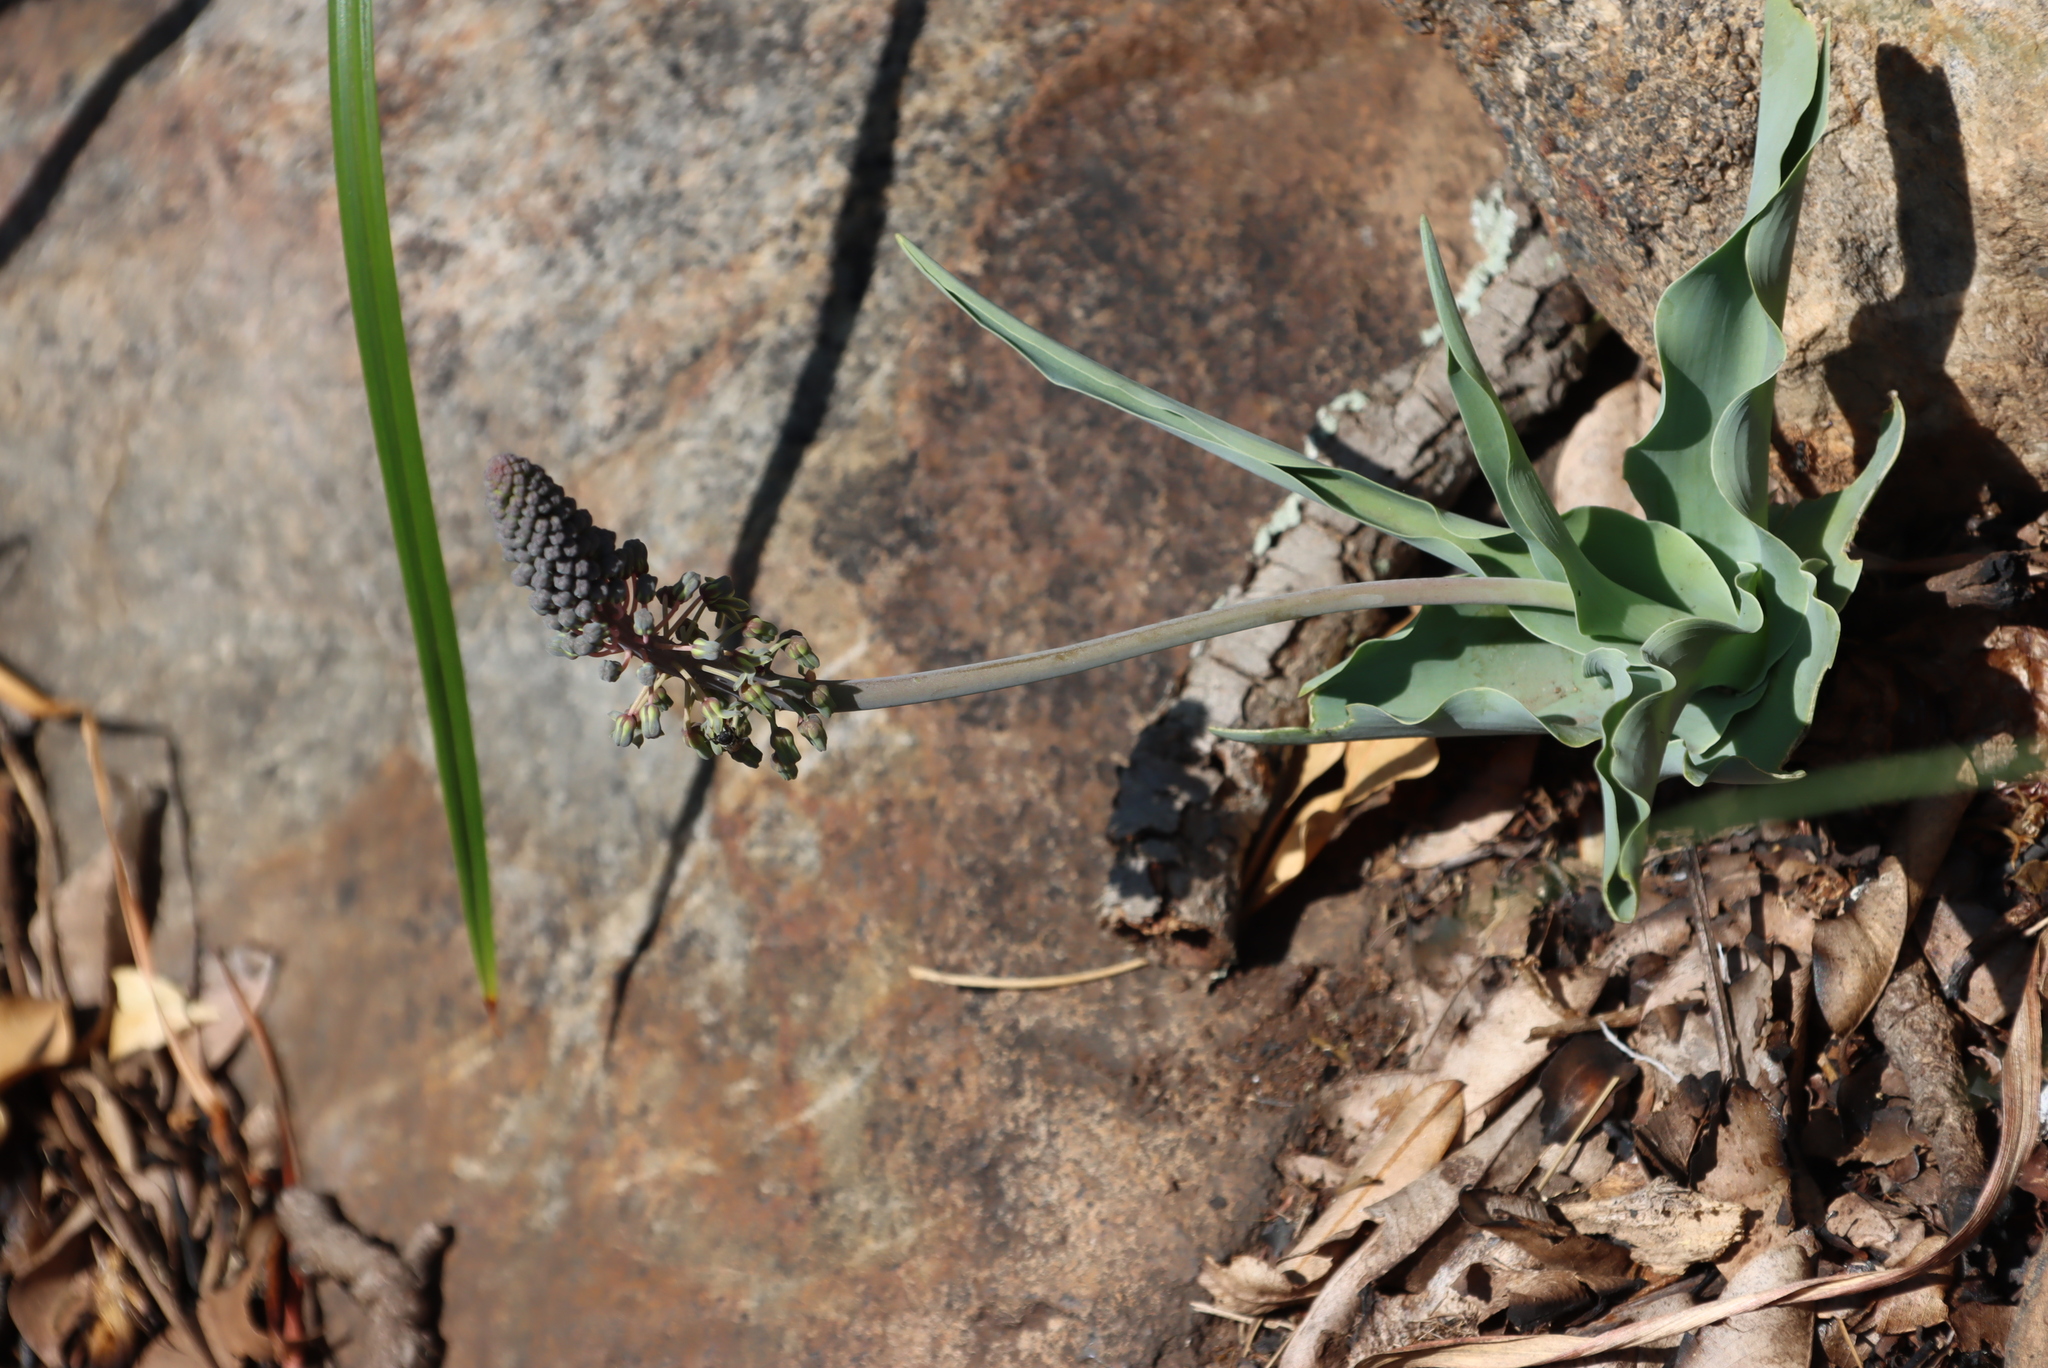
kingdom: Plantae
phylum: Tracheophyta
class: Liliopsida
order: Asparagales
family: Asparagaceae
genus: Ledebouria
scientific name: Ledebouria asperifolia
